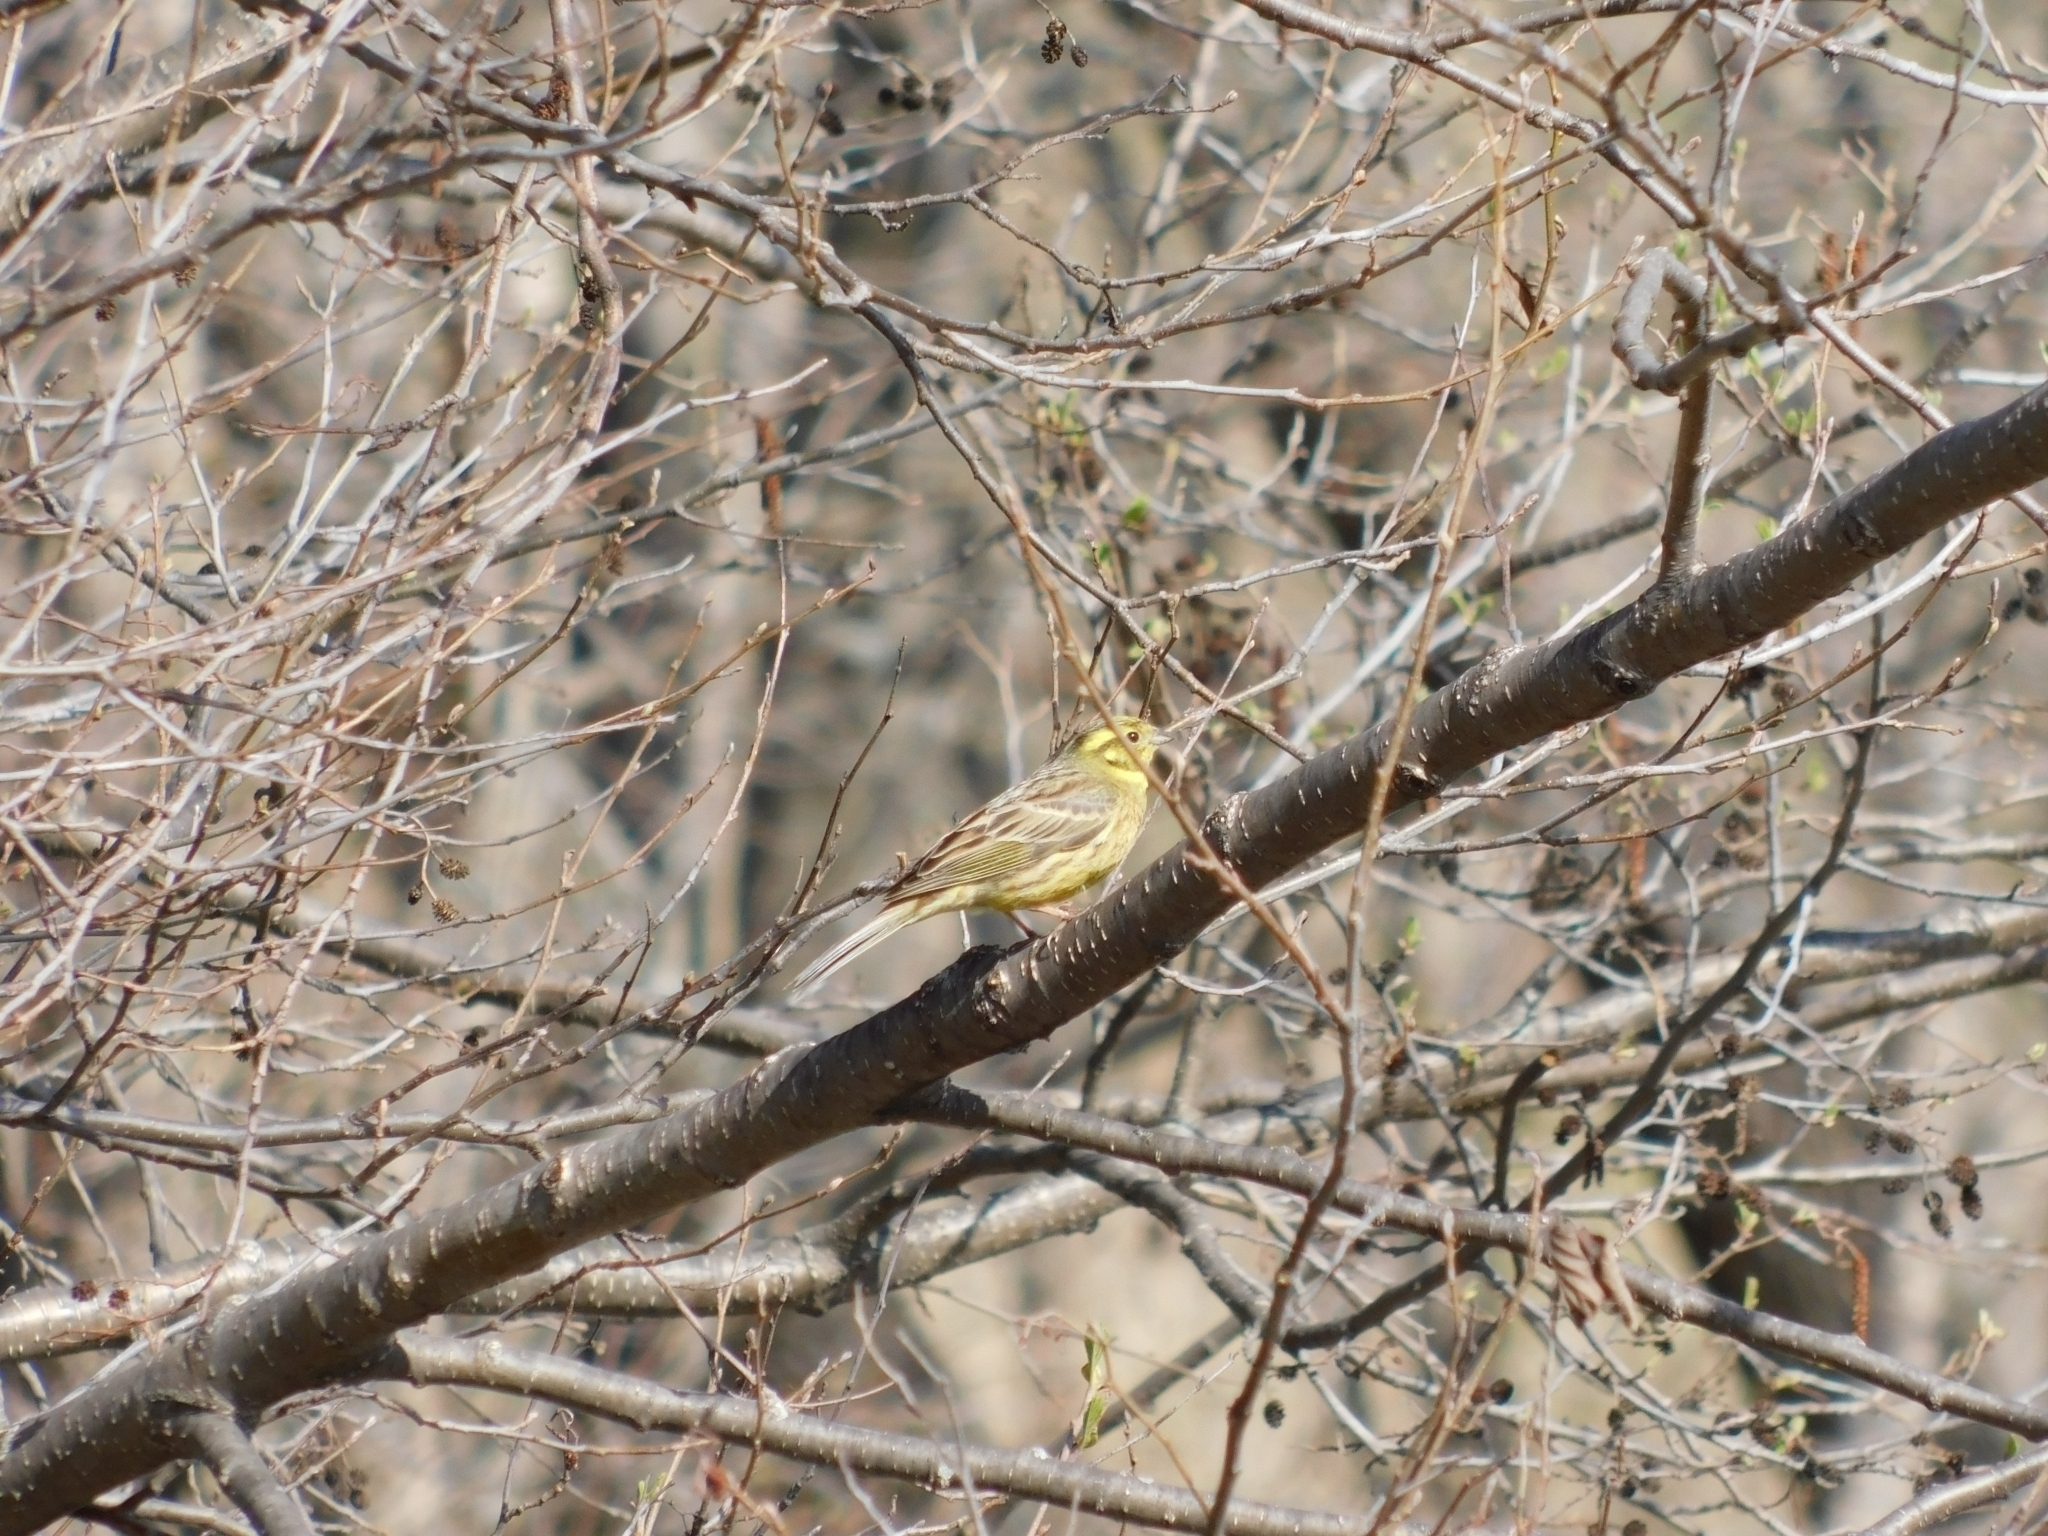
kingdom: Animalia
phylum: Chordata
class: Aves
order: Passeriformes
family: Emberizidae
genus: Emberiza
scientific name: Emberiza citrinella
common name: Yellowhammer
